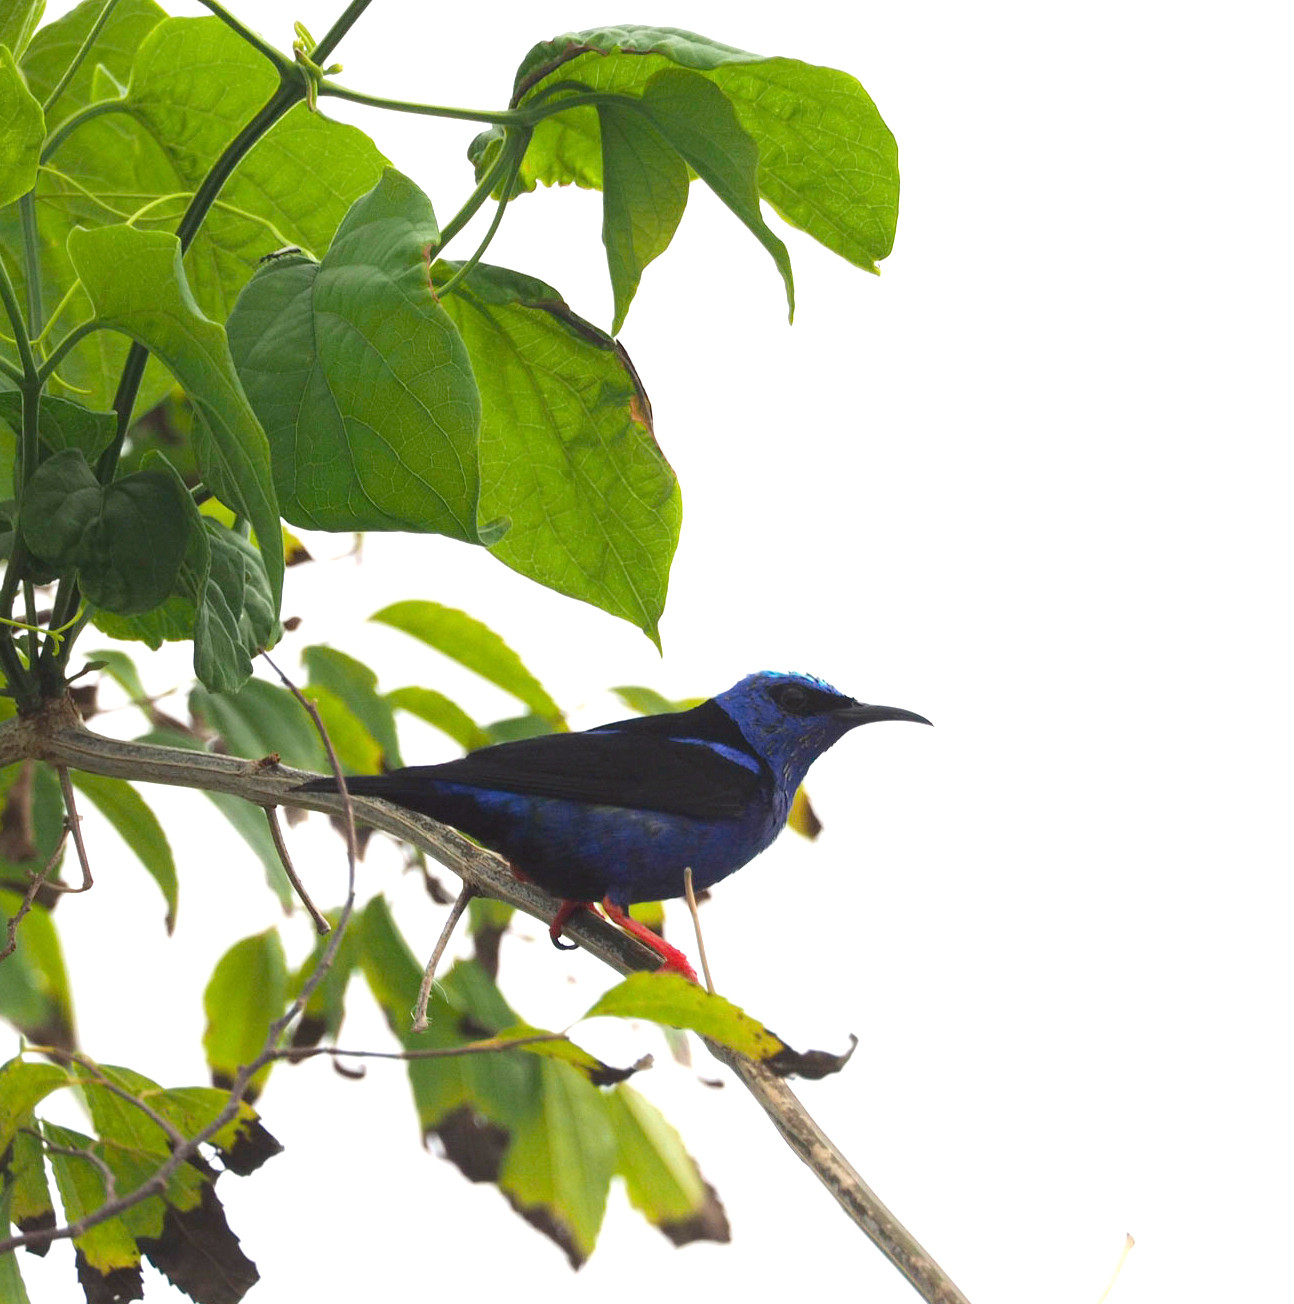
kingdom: Animalia
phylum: Chordata
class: Aves
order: Passeriformes
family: Thraupidae
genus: Cyanerpes
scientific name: Cyanerpes cyaneus
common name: Red-legged honeycreeper
